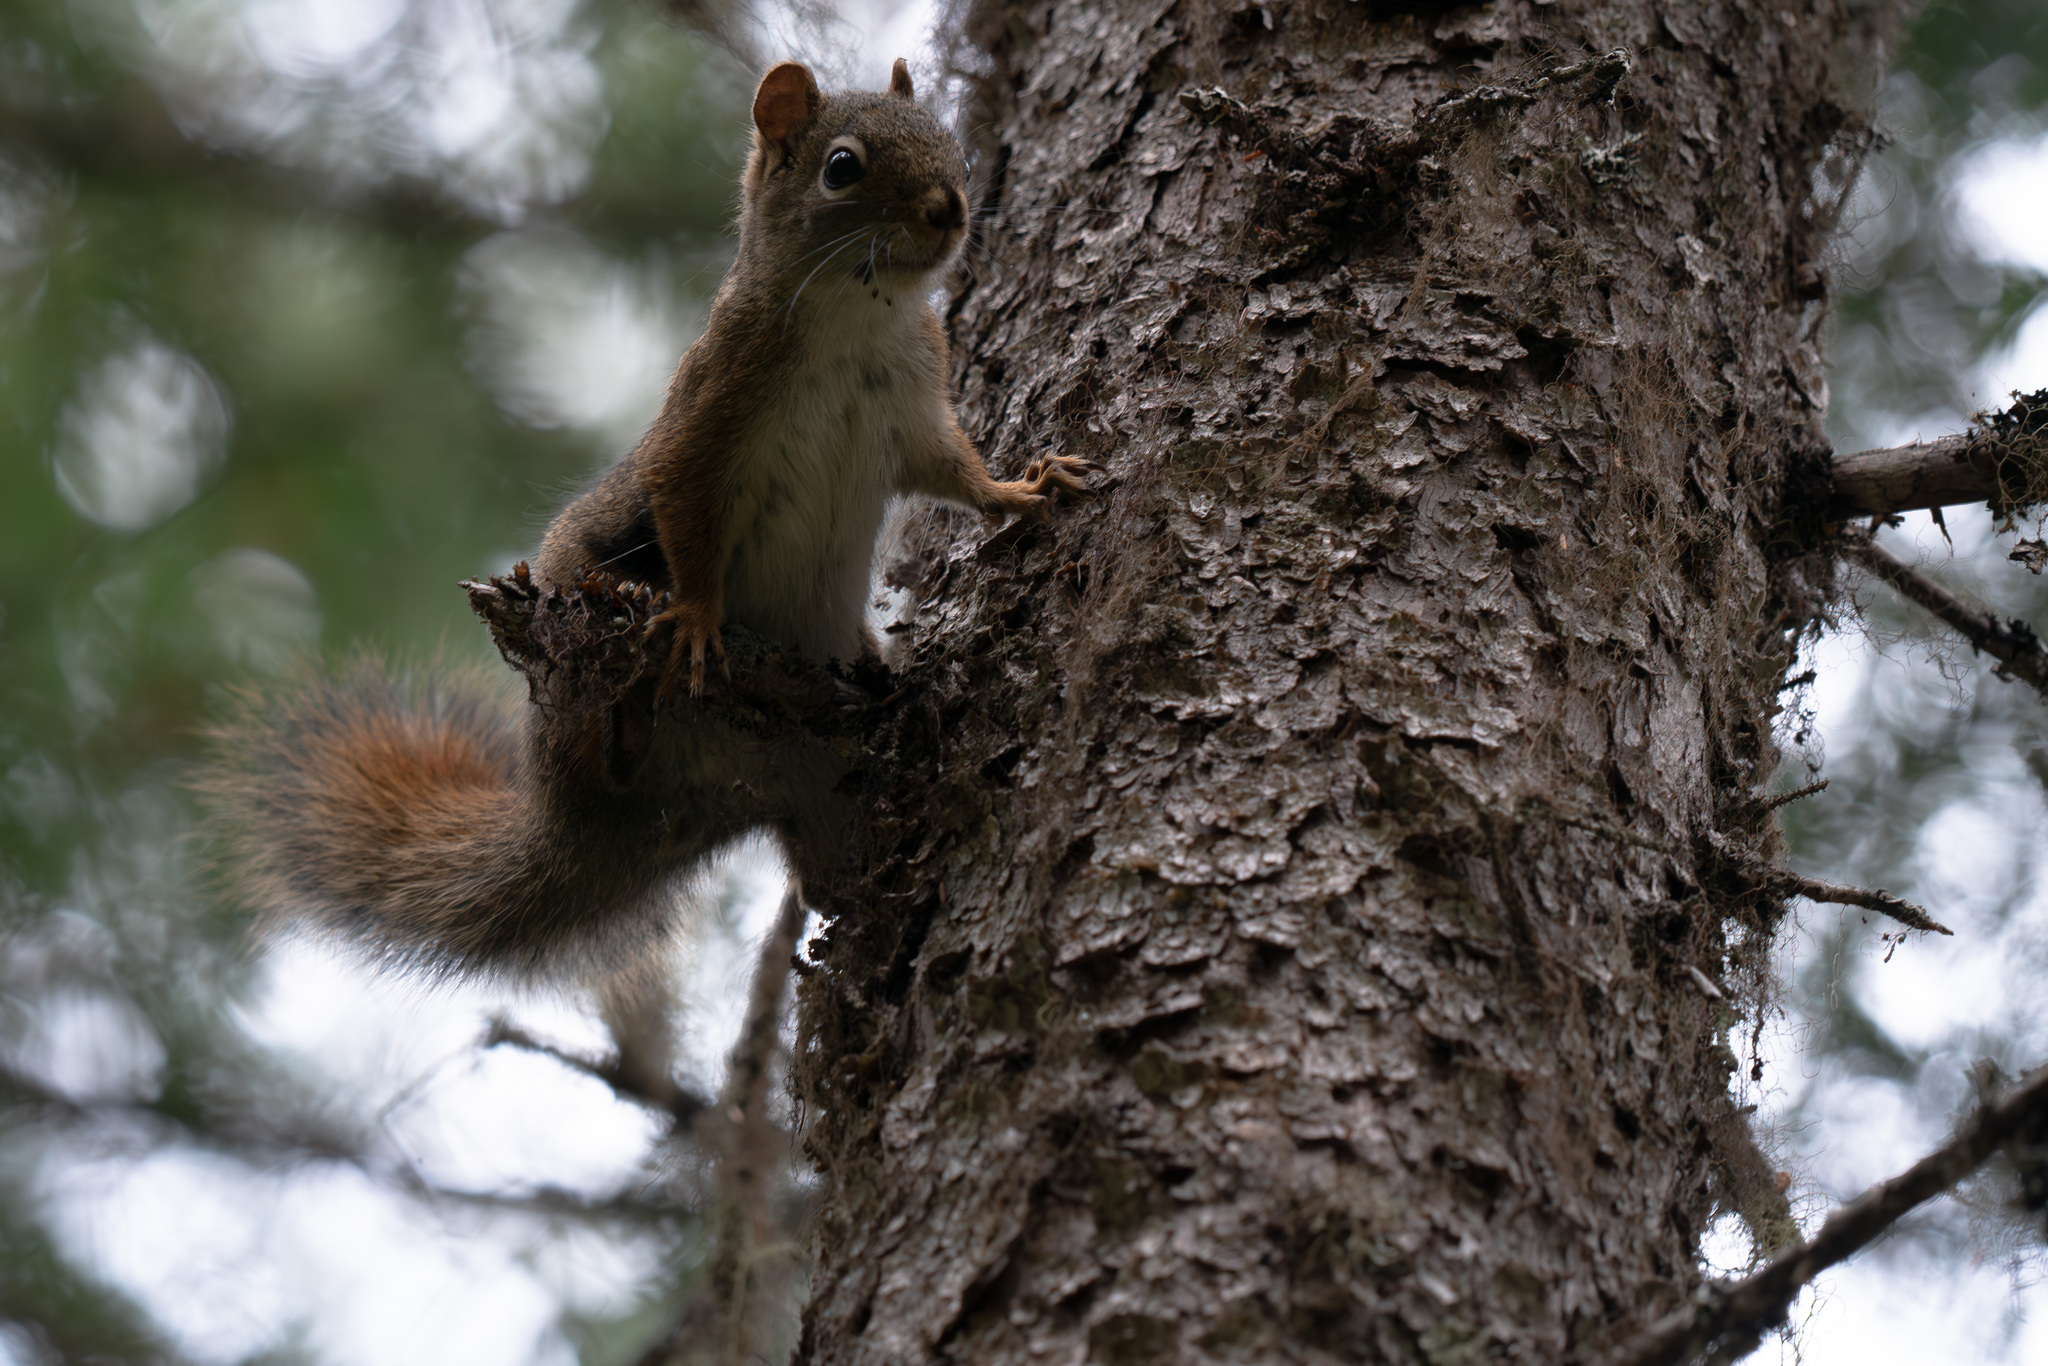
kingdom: Animalia
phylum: Chordata
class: Mammalia
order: Rodentia
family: Sciuridae
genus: Tamiasciurus
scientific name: Tamiasciurus hudsonicus
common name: Red squirrel
